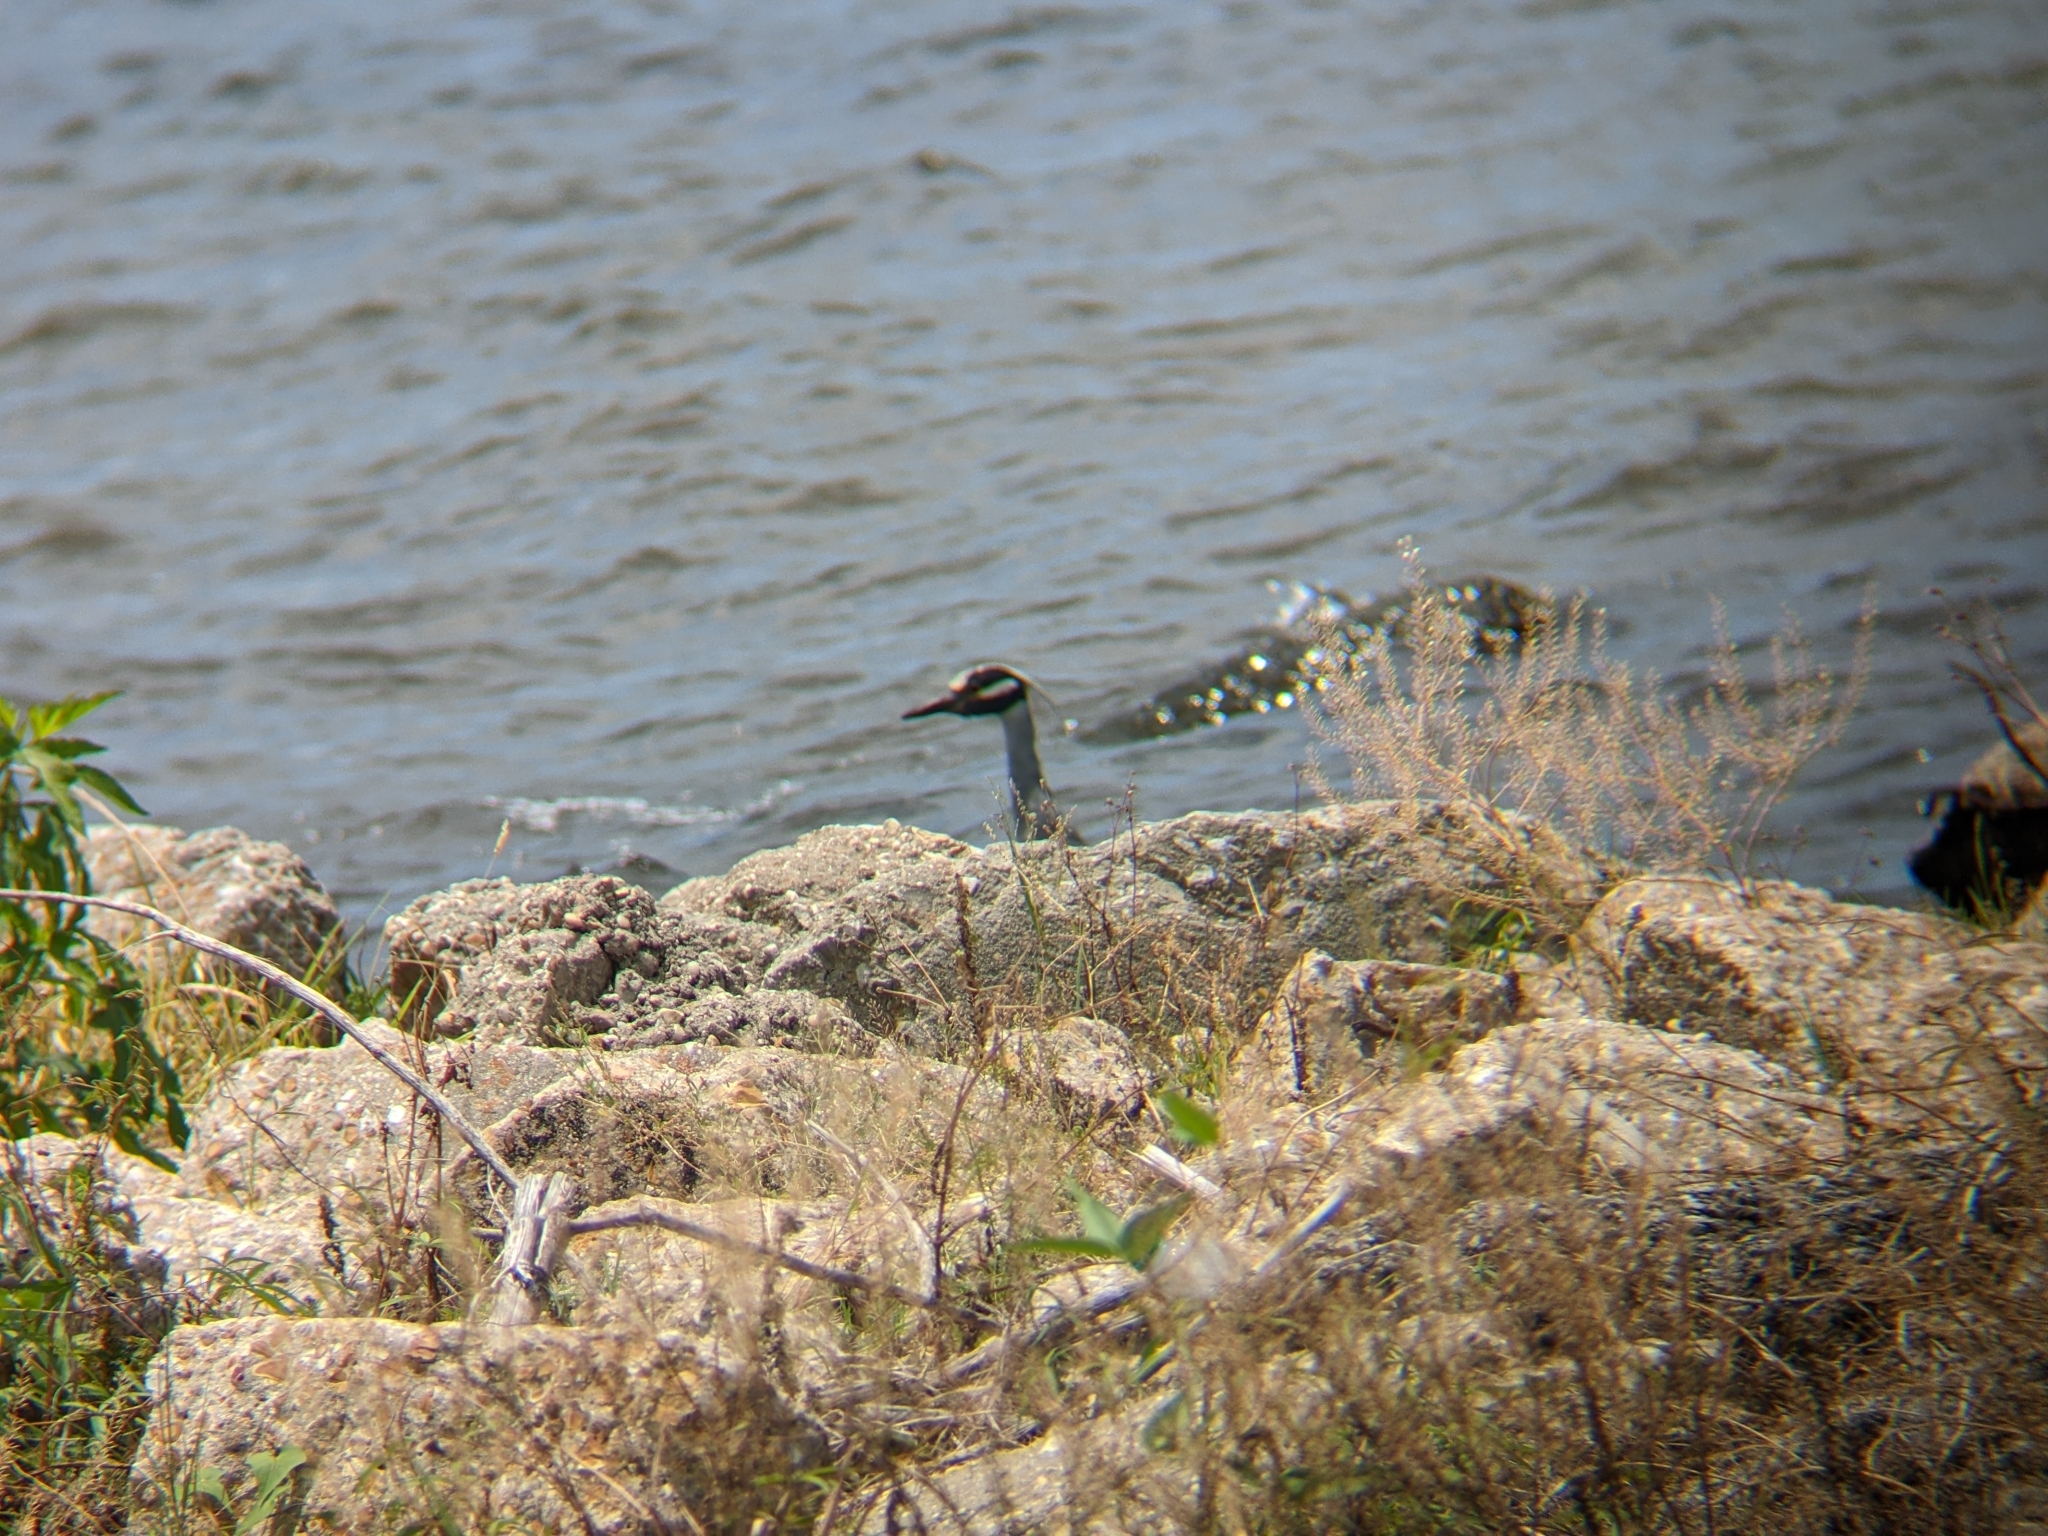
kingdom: Animalia
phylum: Chordata
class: Aves
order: Pelecaniformes
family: Ardeidae
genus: Nyctanassa
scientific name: Nyctanassa violacea
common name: Yellow-crowned night heron
